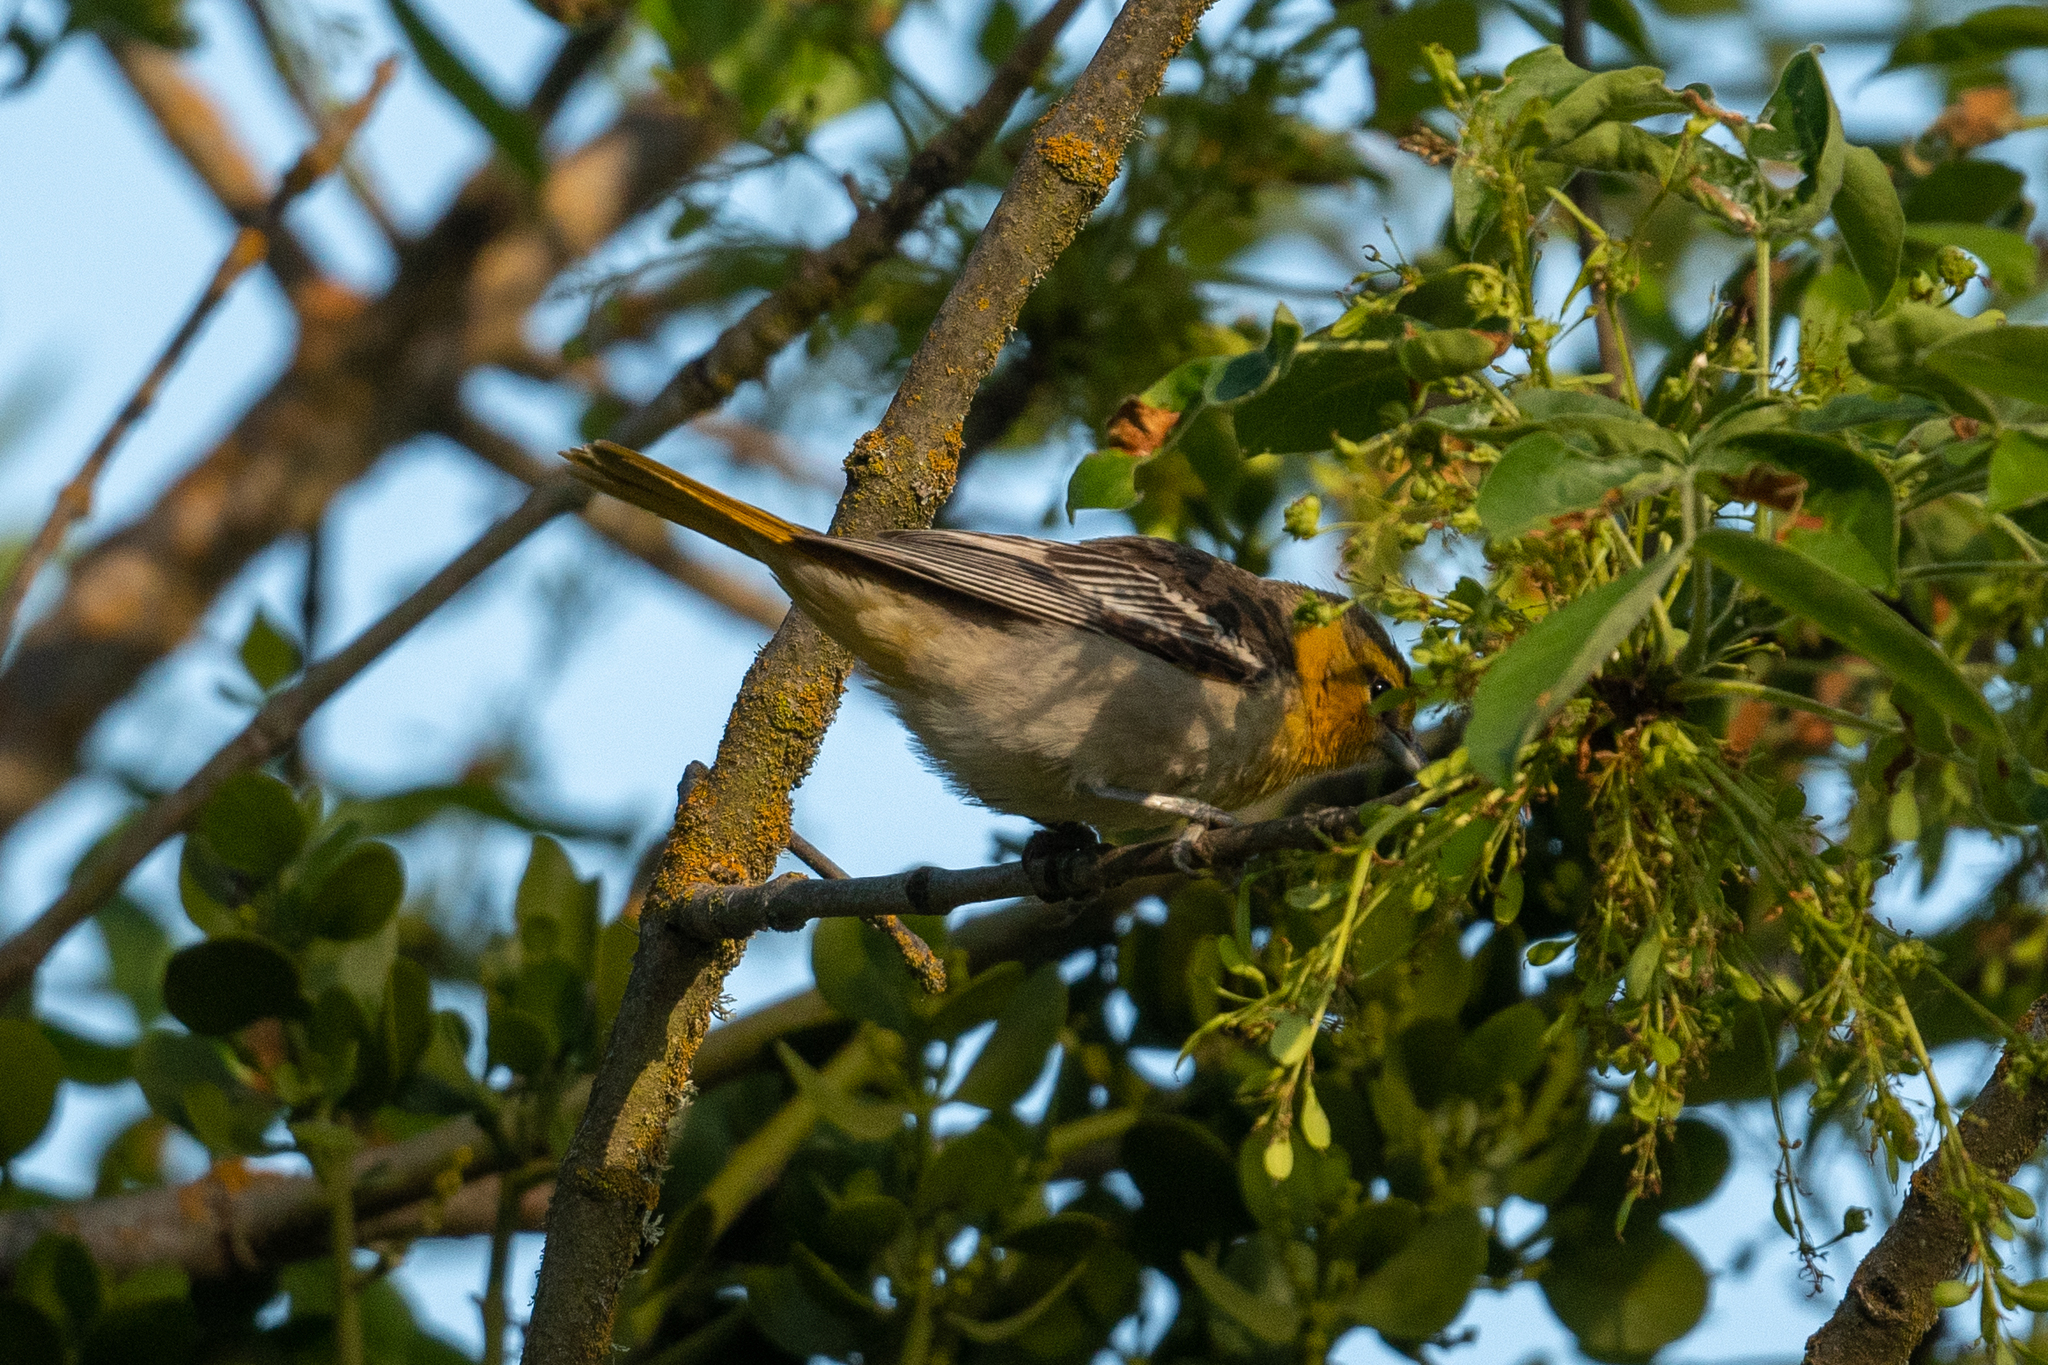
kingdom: Animalia
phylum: Chordata
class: Aves
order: Passeriformes
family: Icteridae
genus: Icterus
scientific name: Icterus bullockii
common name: Bullock's oriole
